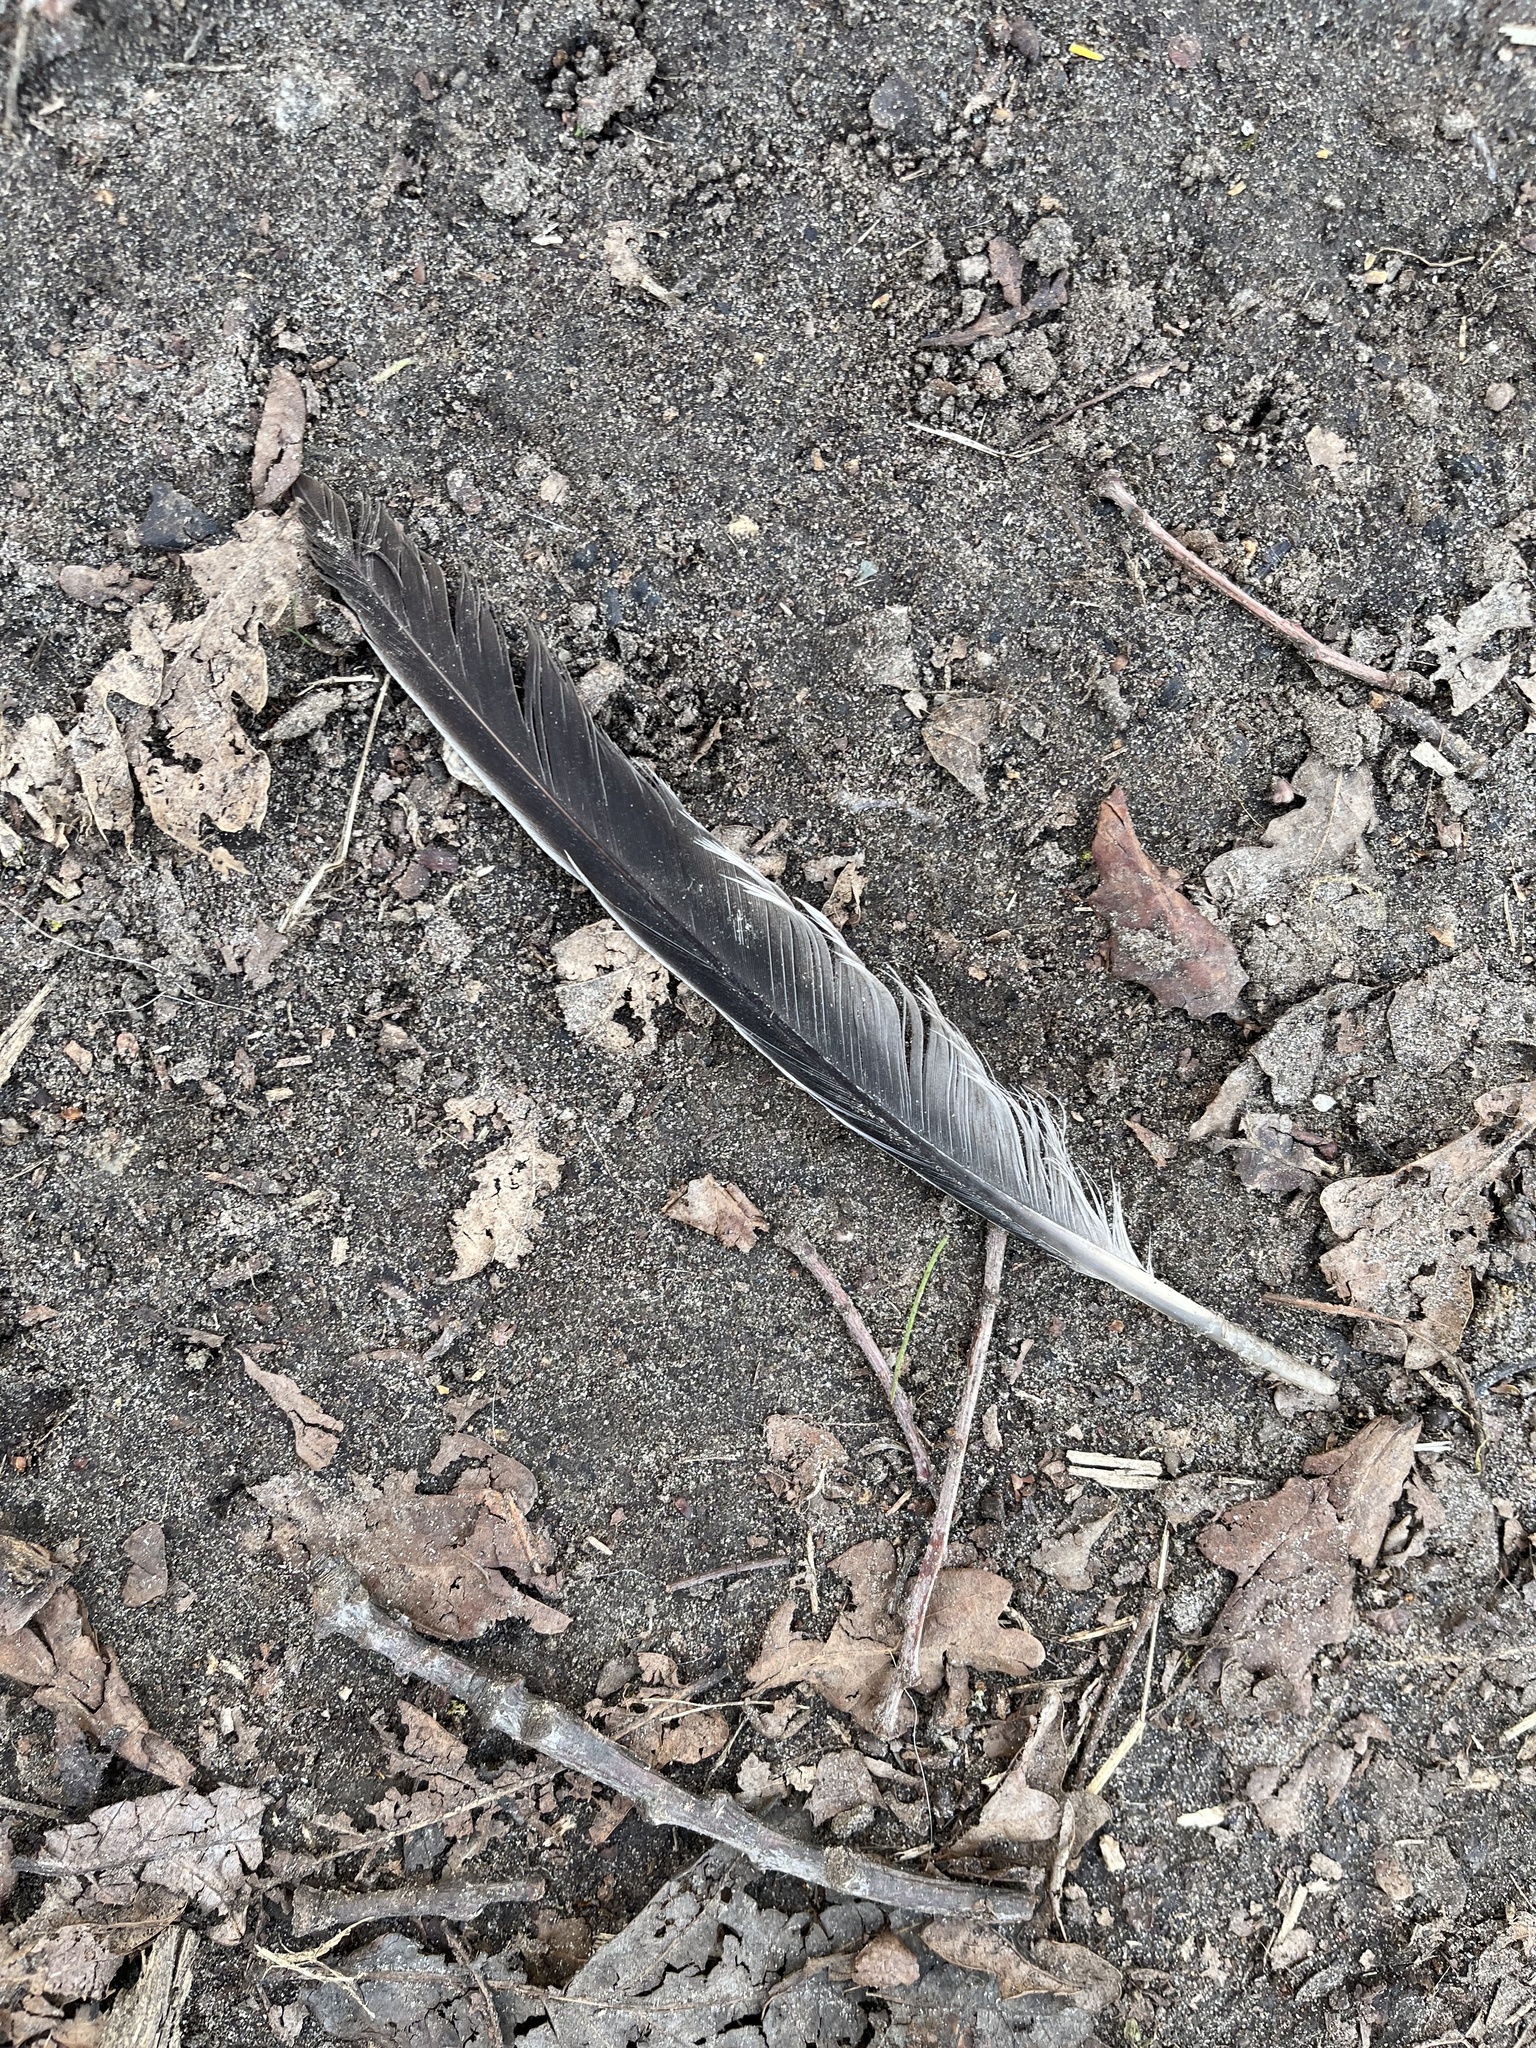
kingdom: Animalia
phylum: Chordata
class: Aves
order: Columbiformes
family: Columbidae
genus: Columba
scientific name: Columba palumbus
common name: Common wood pigeon
